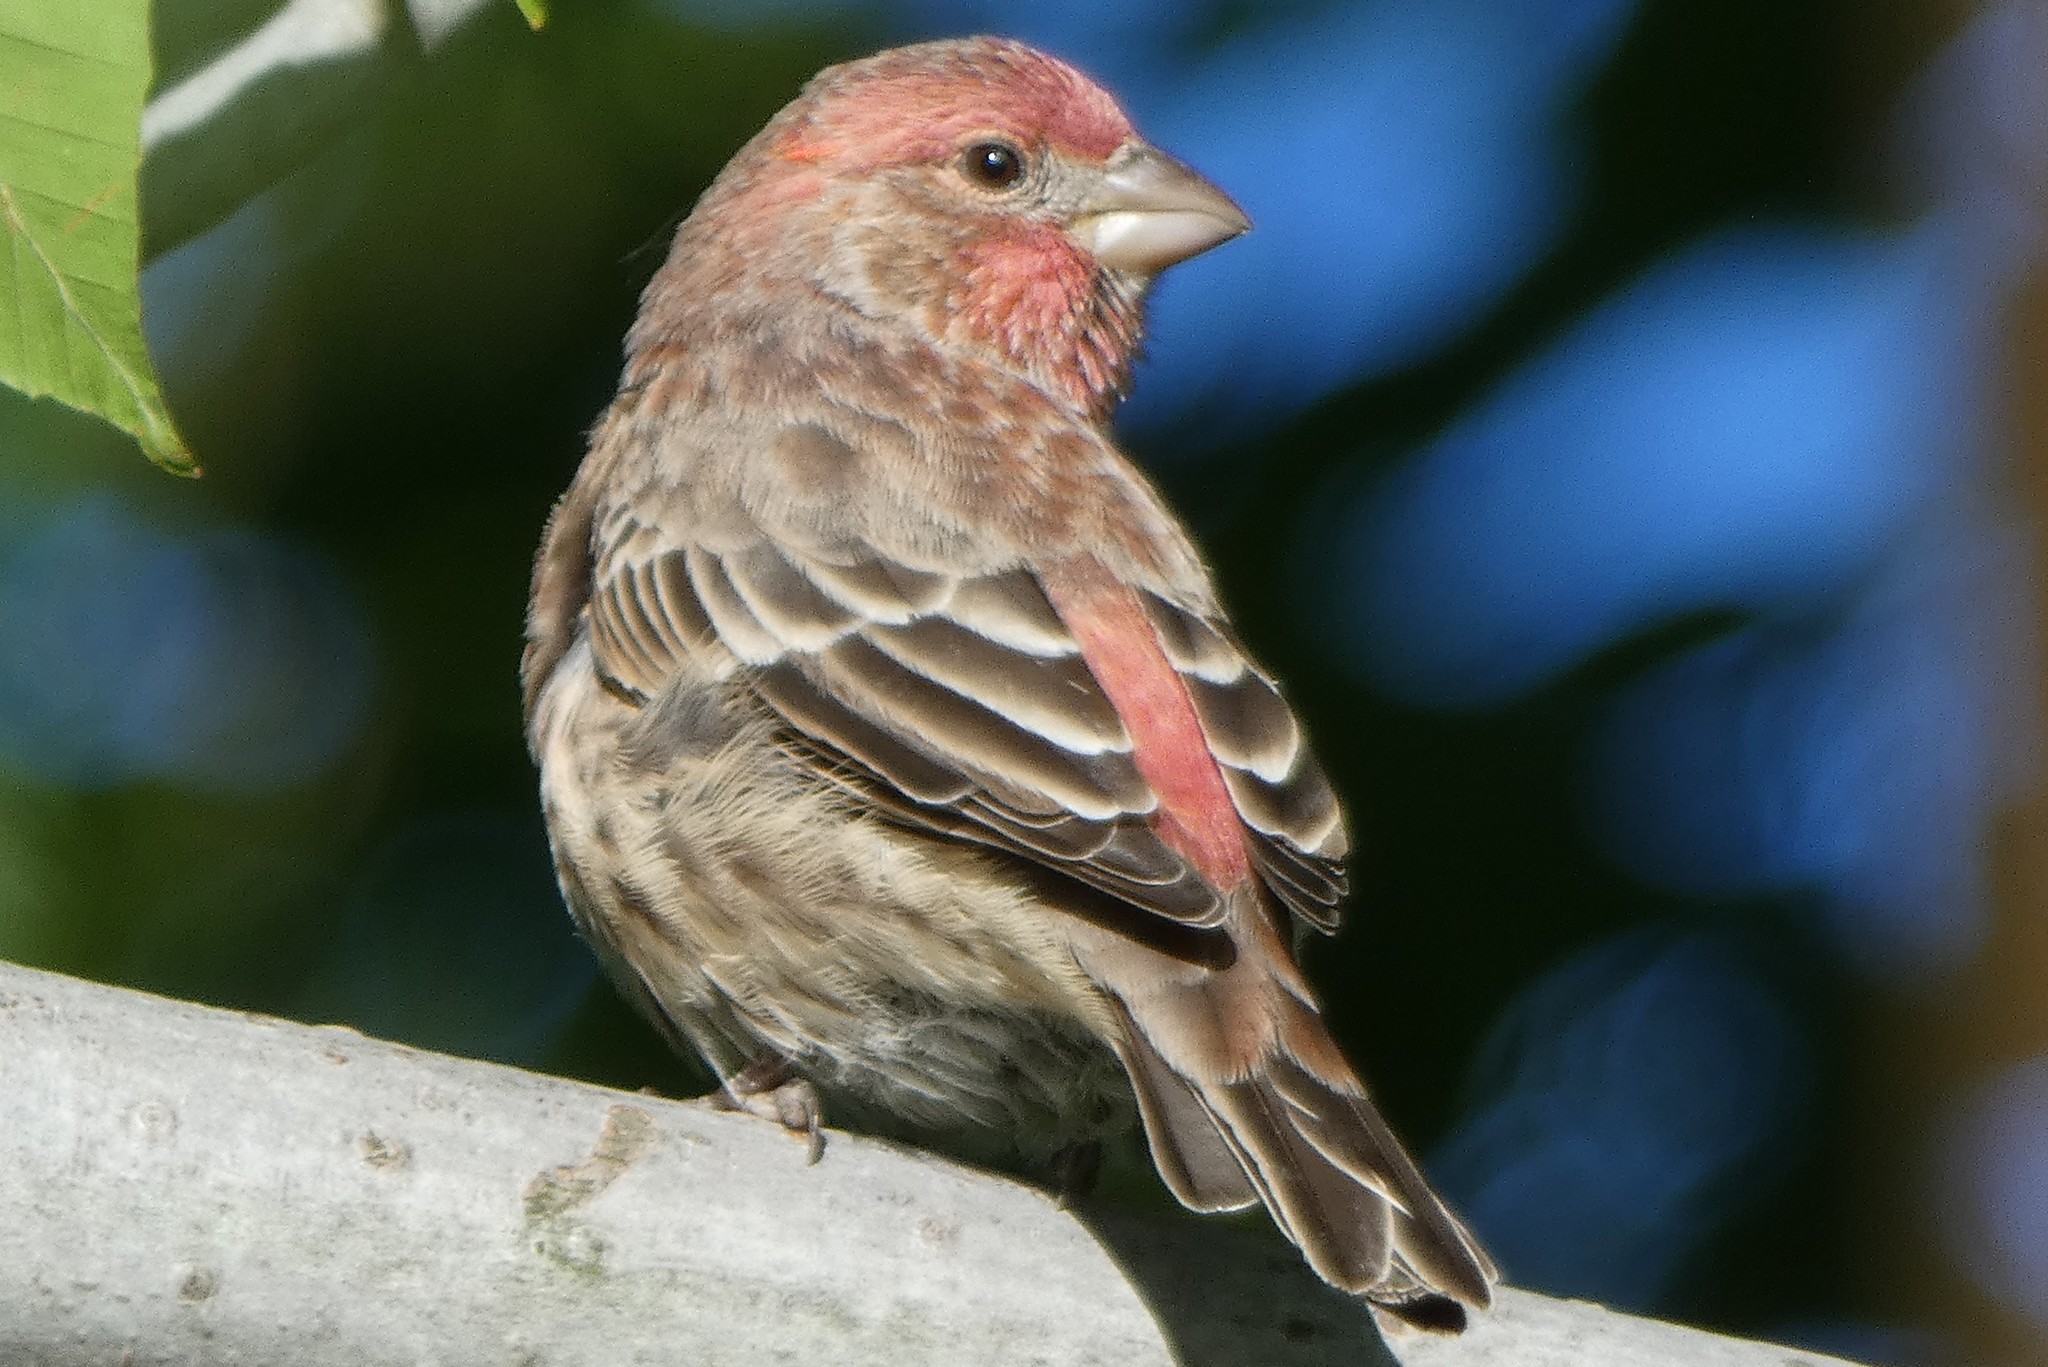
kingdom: Animalia
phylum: Chordata
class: Aves
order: Passeriformes
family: Fringillidae
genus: Haemorhous
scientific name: Haemorhous mexicanus
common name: House finch
